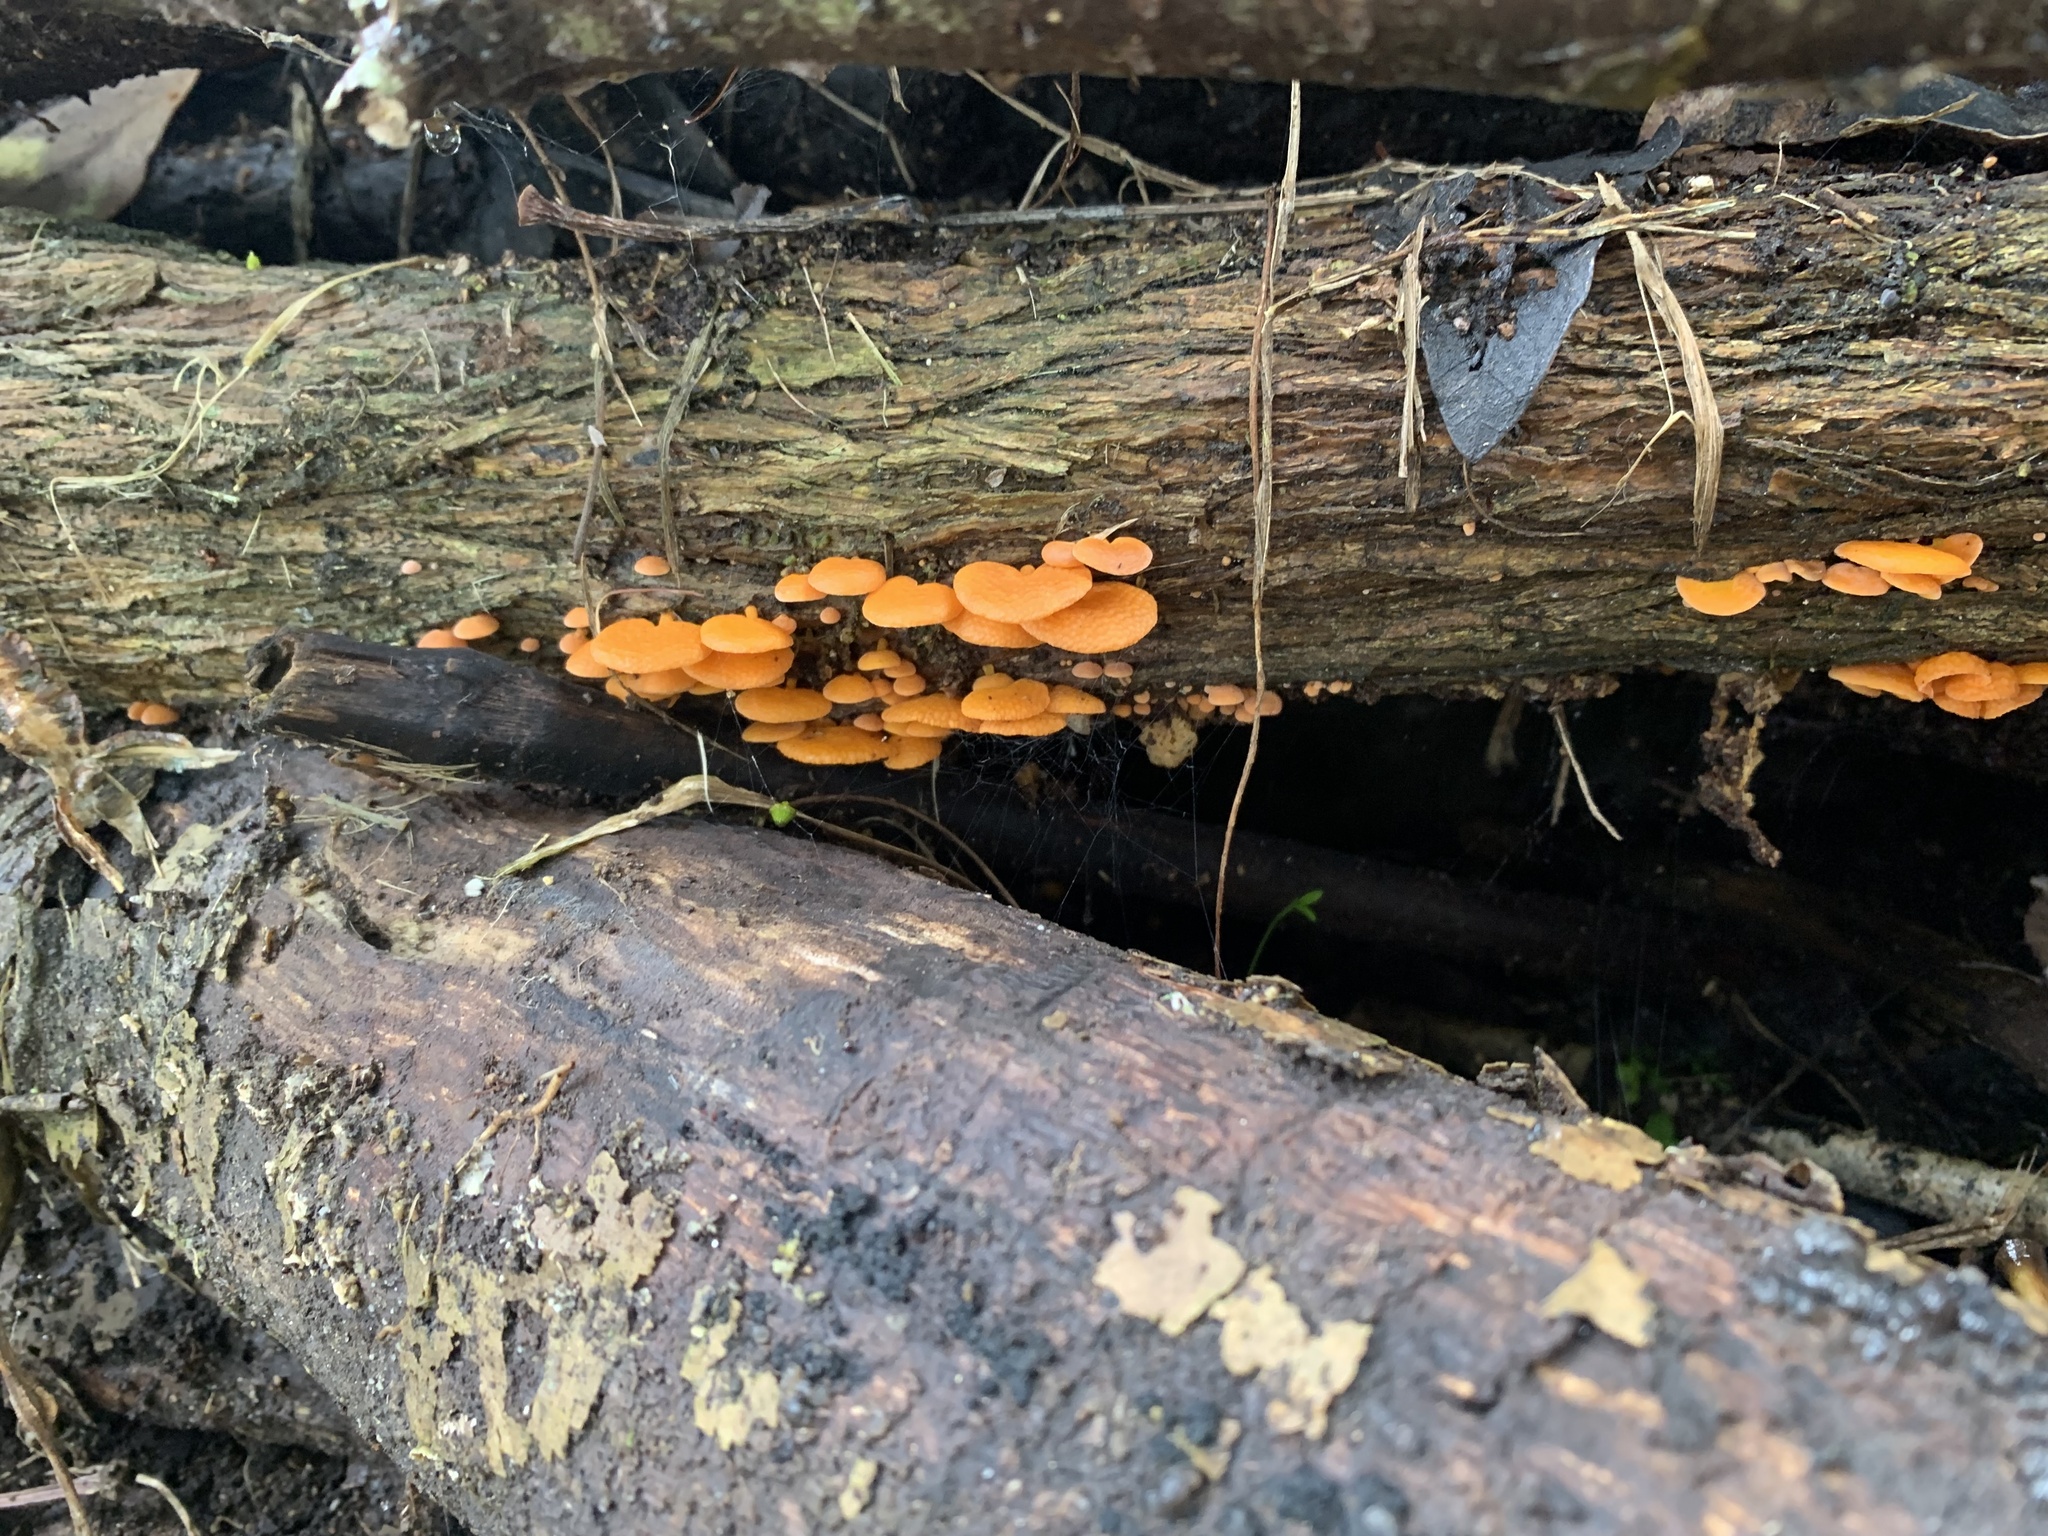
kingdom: Fungi
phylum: Basidiomycota
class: Agaricomycetes
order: Agaricales
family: Mycenaceae
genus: Favolaschia
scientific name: Favolaschia claudopus
